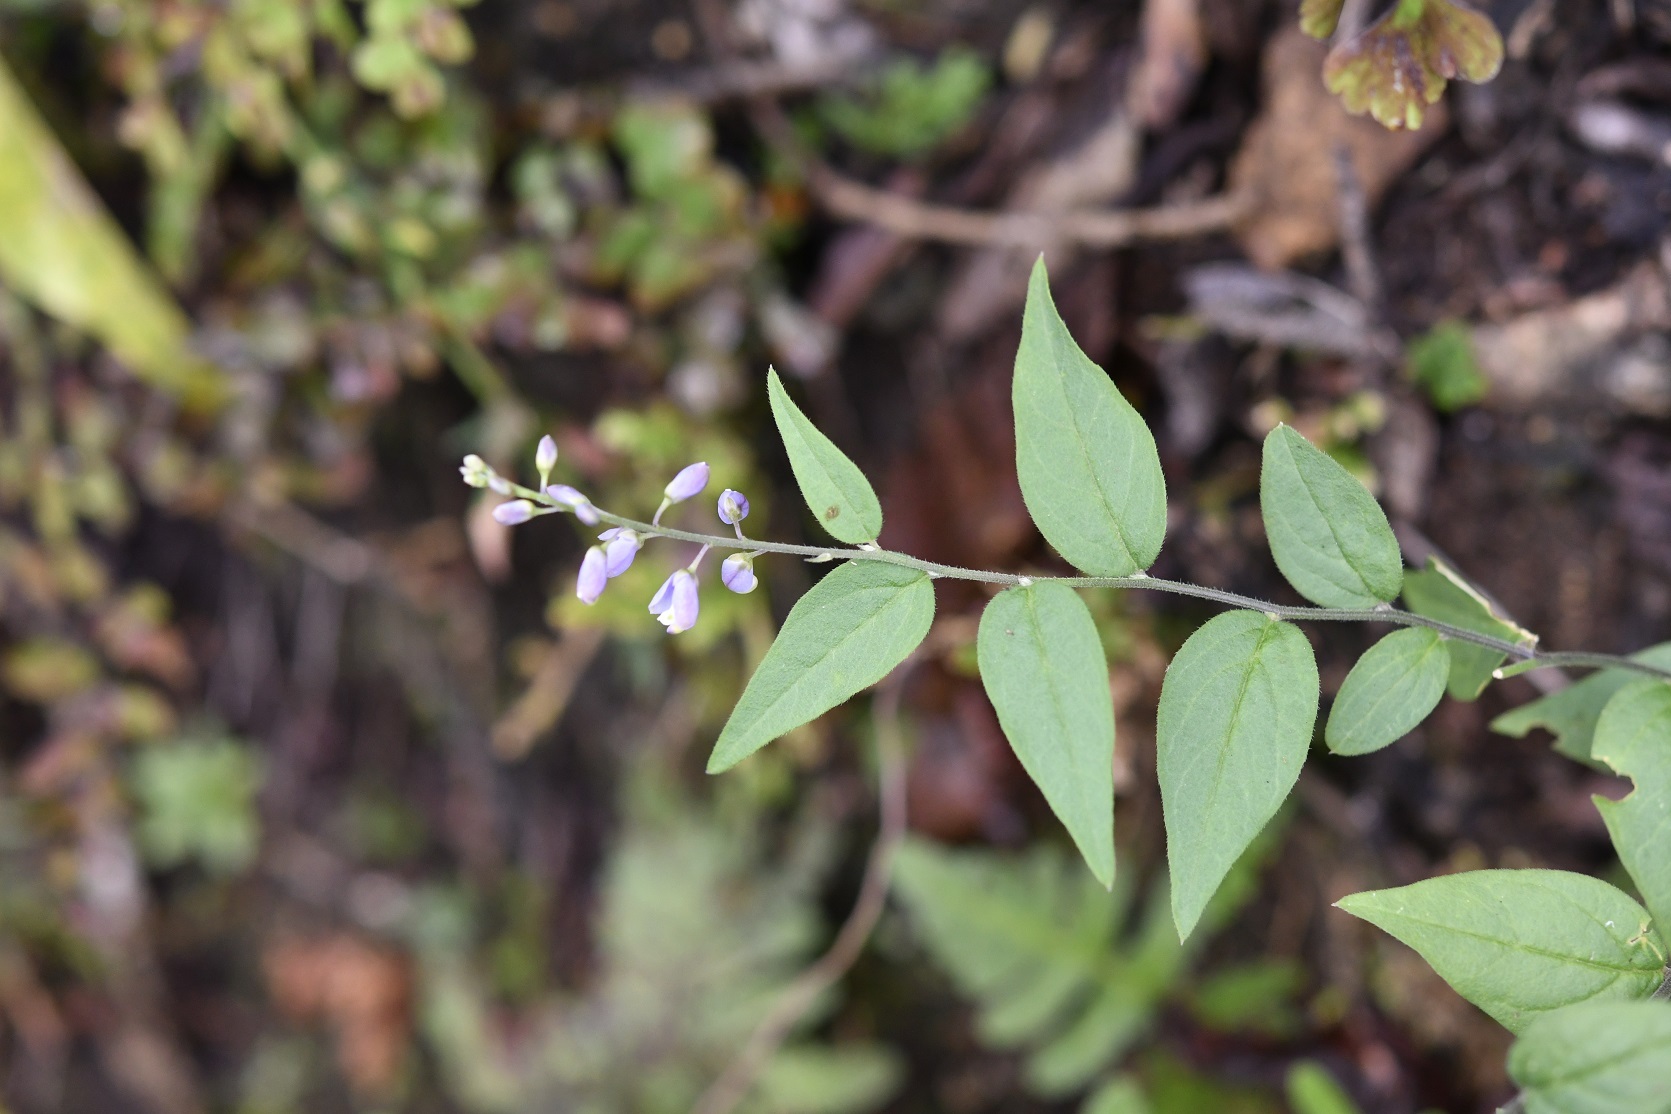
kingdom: Plantae
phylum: Tracheophyta
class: Magnoliopsida
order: Fabales
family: Polygalaceae
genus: Hebecarpa
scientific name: Hebecarpa costaricensis
